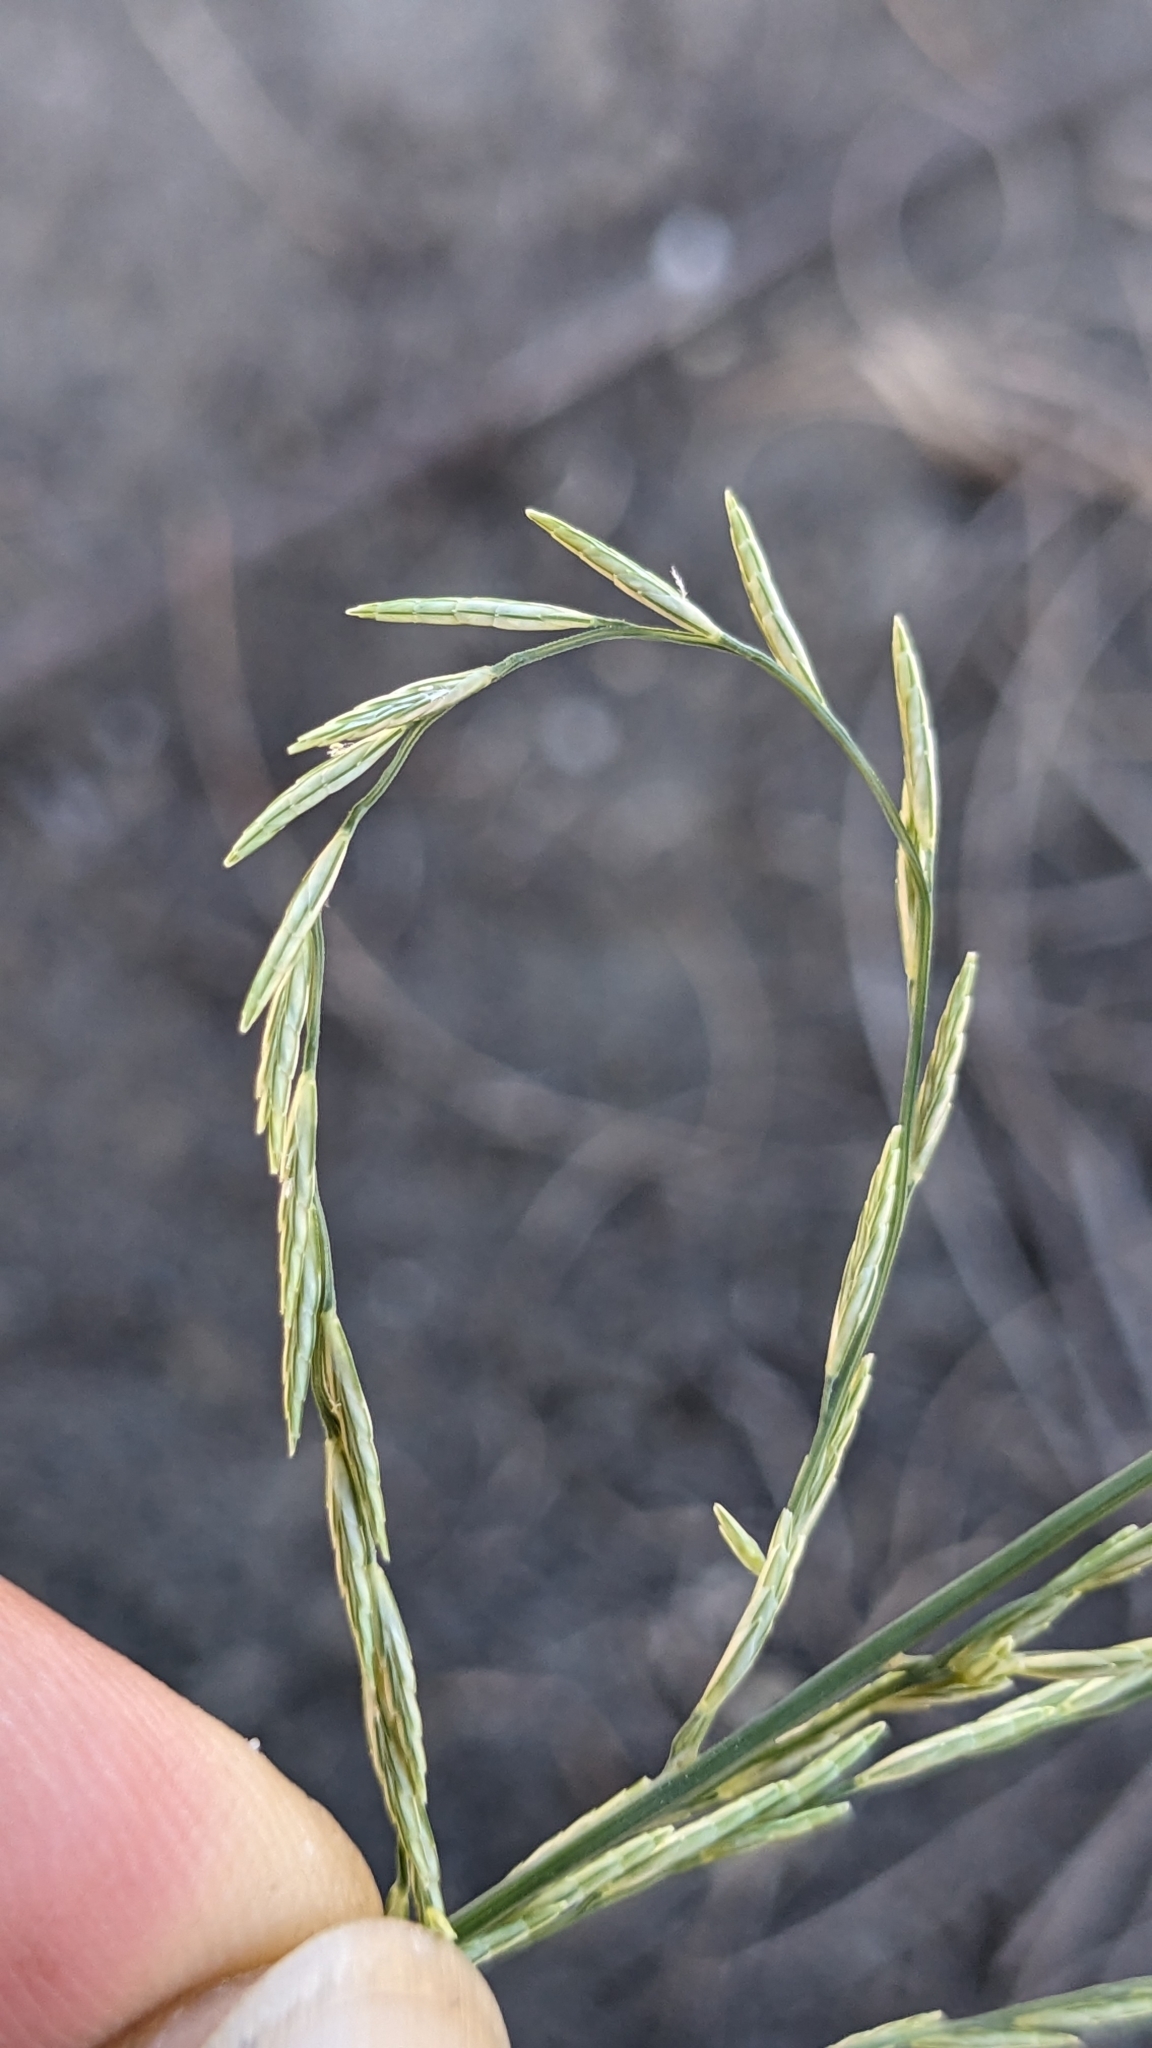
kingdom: Plantae
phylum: Tracheophyta
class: Liliopsida
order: Poales
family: Poaceae
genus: Diplachne
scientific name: Diplachne fusca
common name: Brown beetle grass
